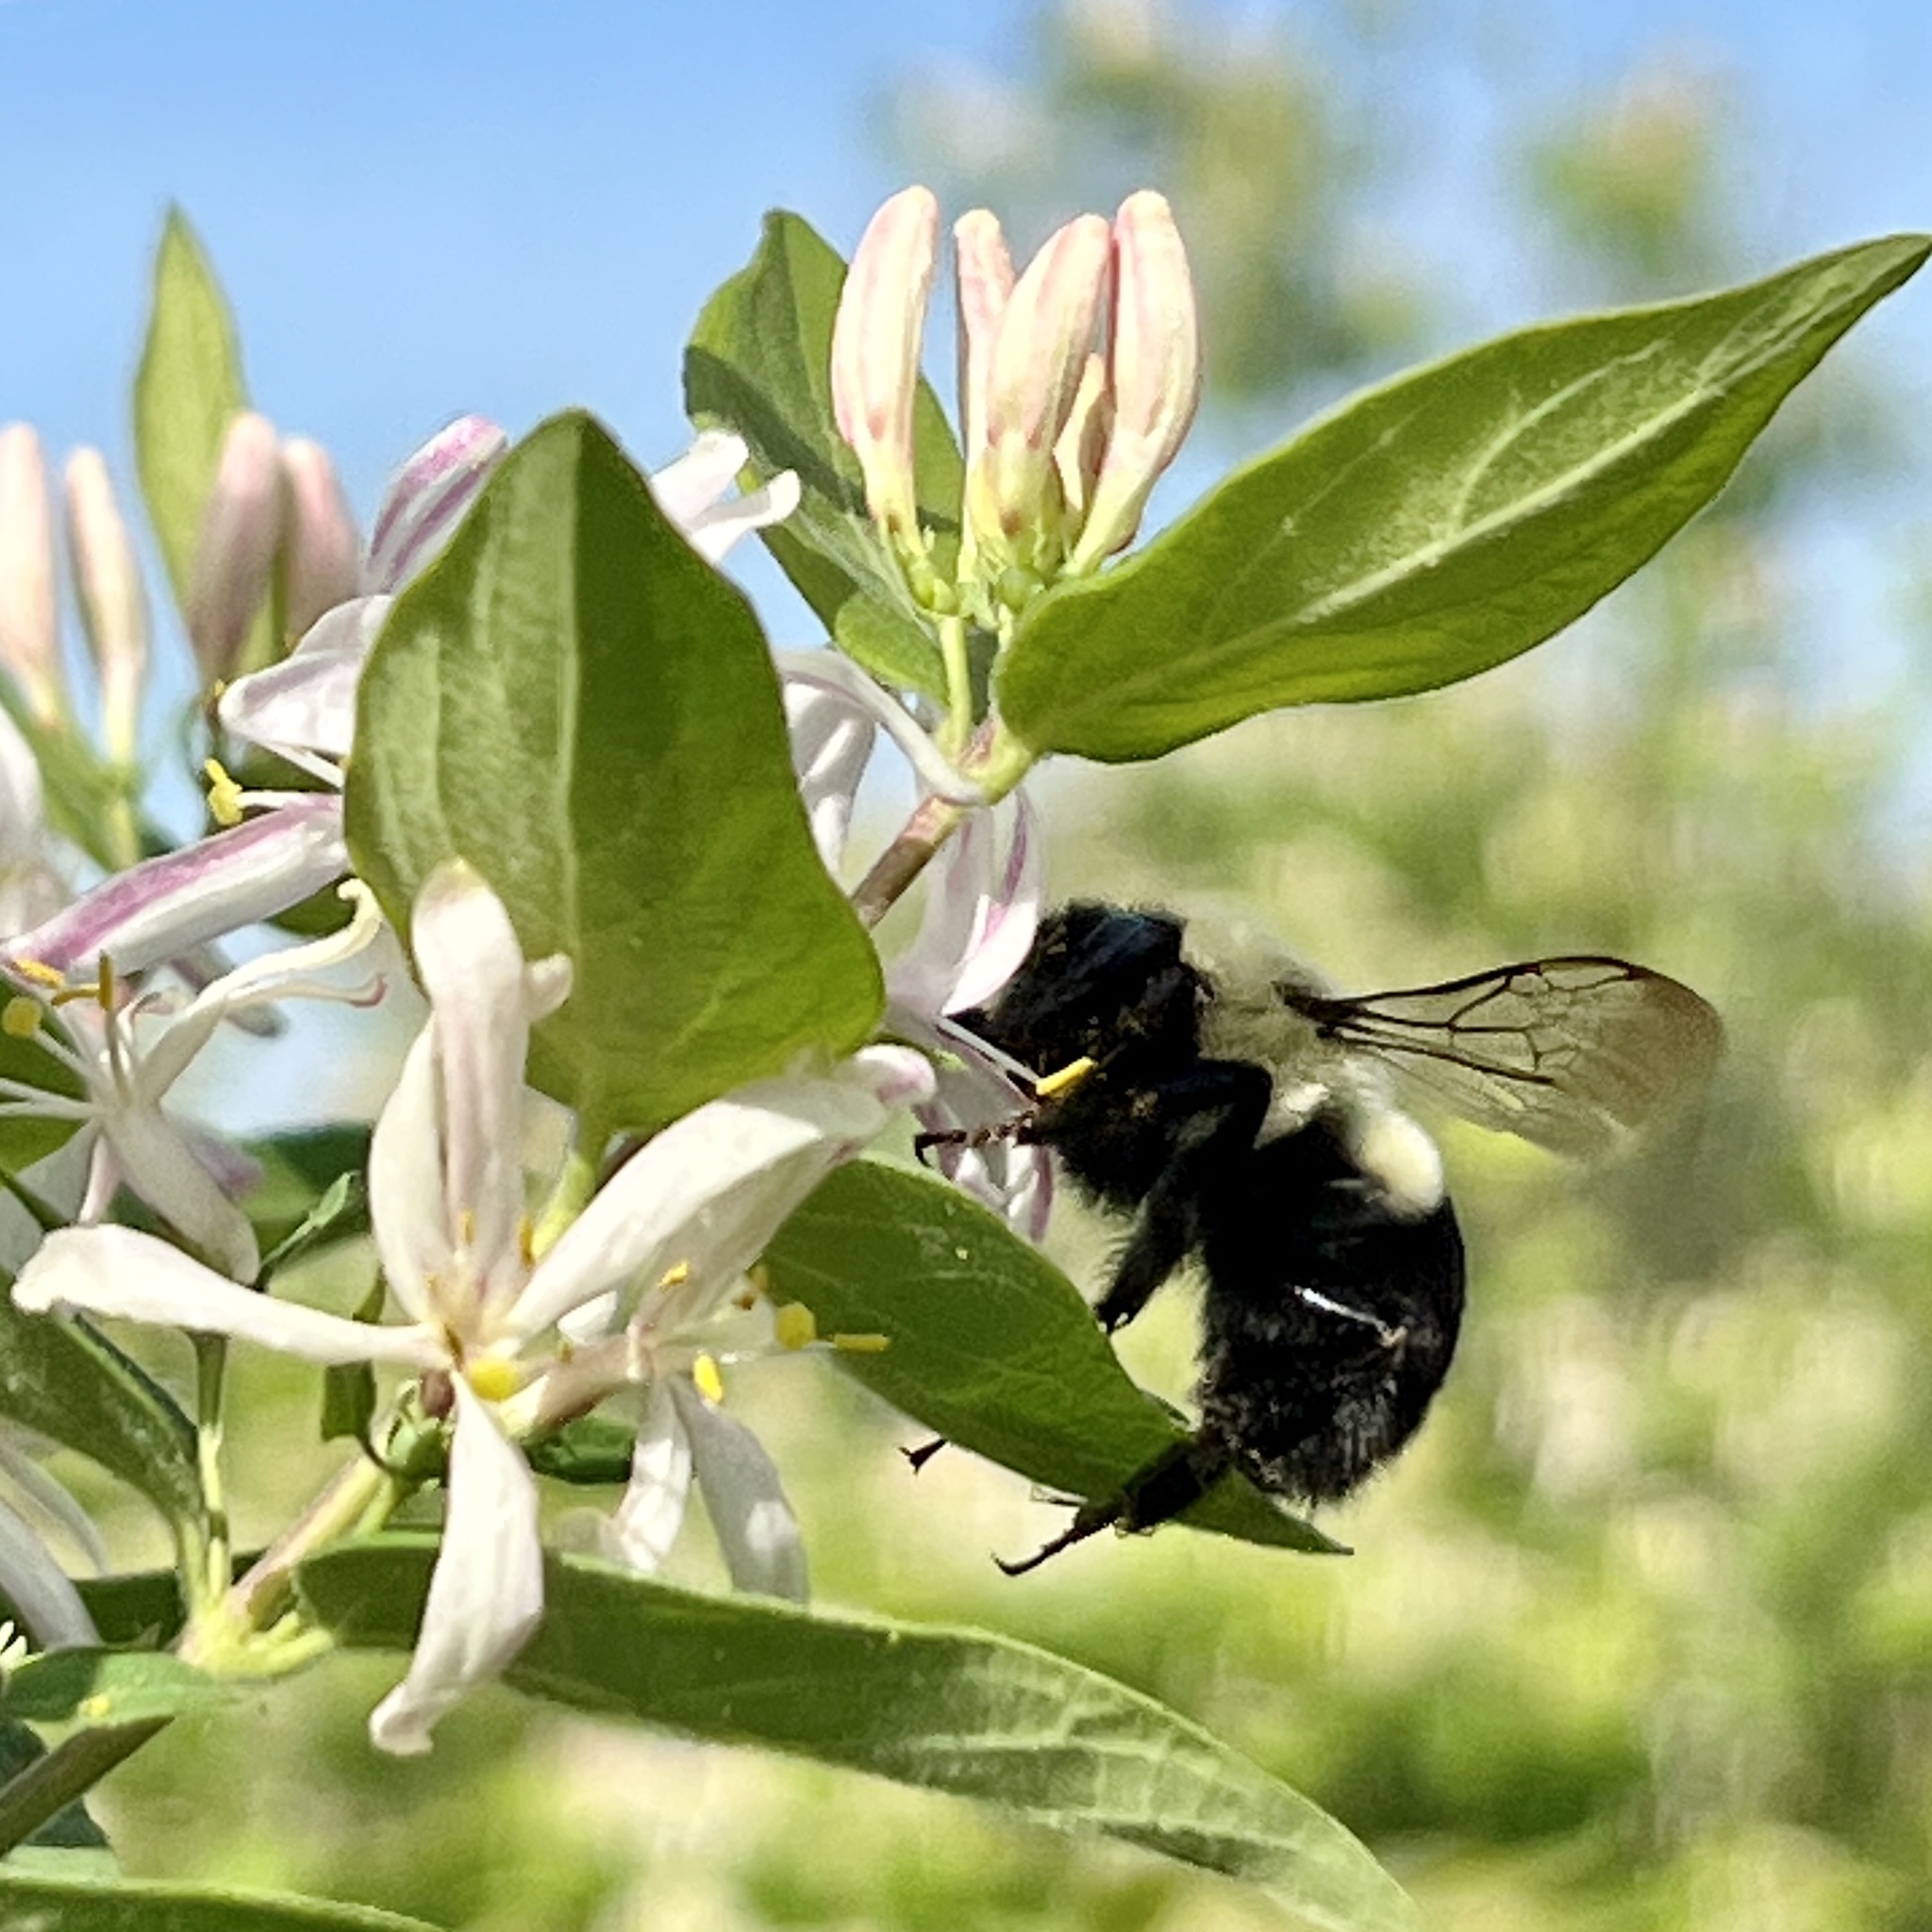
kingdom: Animalia
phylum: Arthropoda
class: Insecta
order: Hymenoptera
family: Apidae
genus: Bombus
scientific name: Bombus impatiens
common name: Common eastern bumble bee
